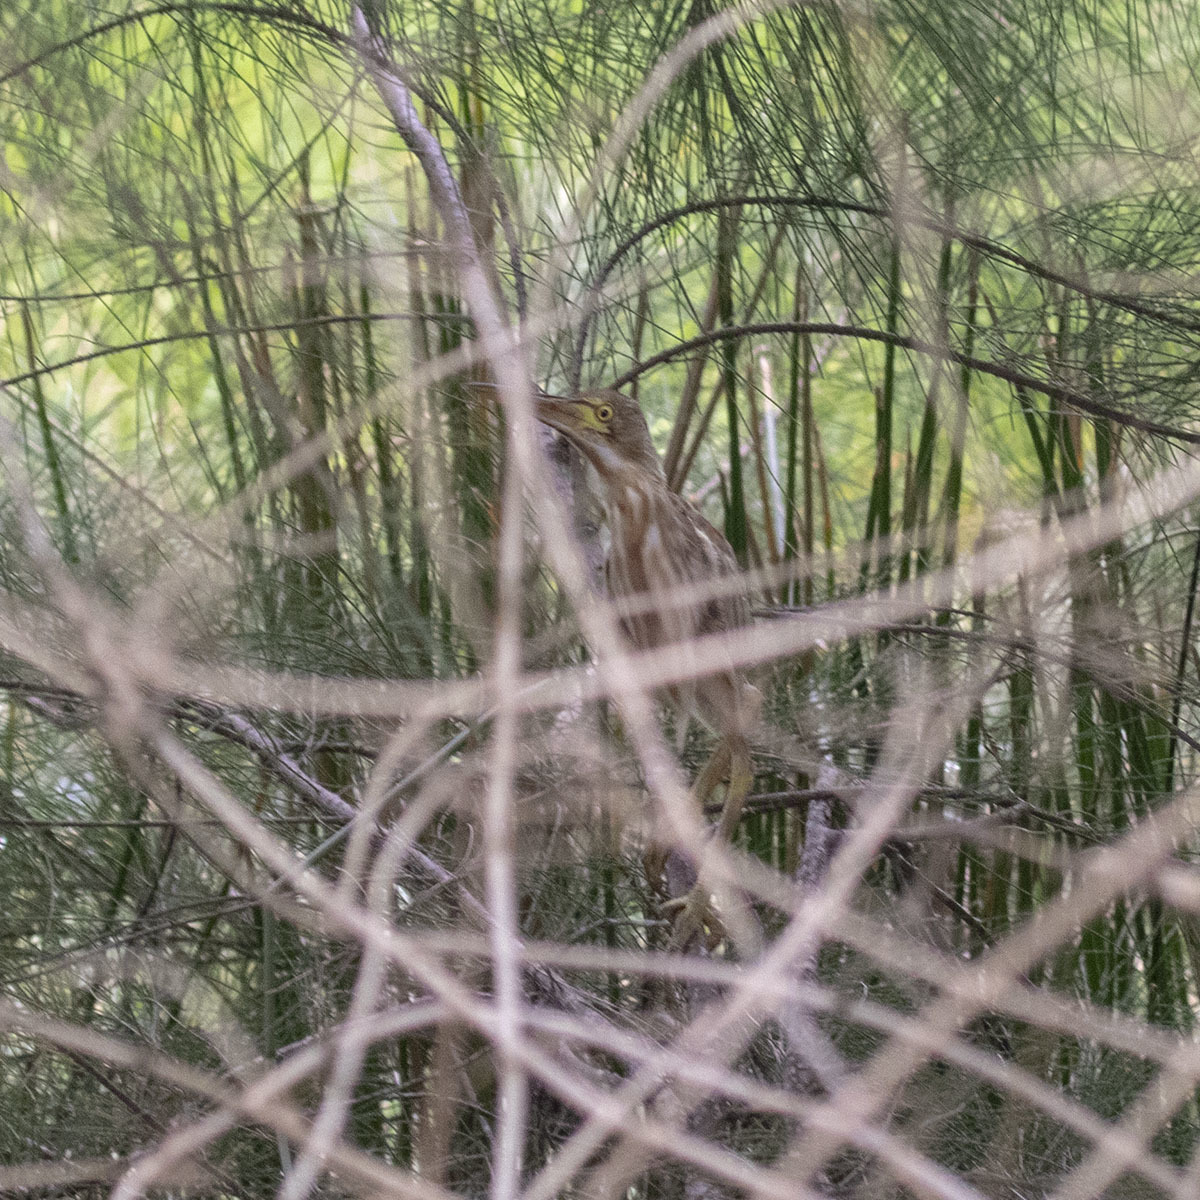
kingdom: Animalia
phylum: Chordata
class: Aves
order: Pelecaniformes
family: Ardeidae
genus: Ixobrychus
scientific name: Ixobrychus sinensis
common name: Yellow bittern
